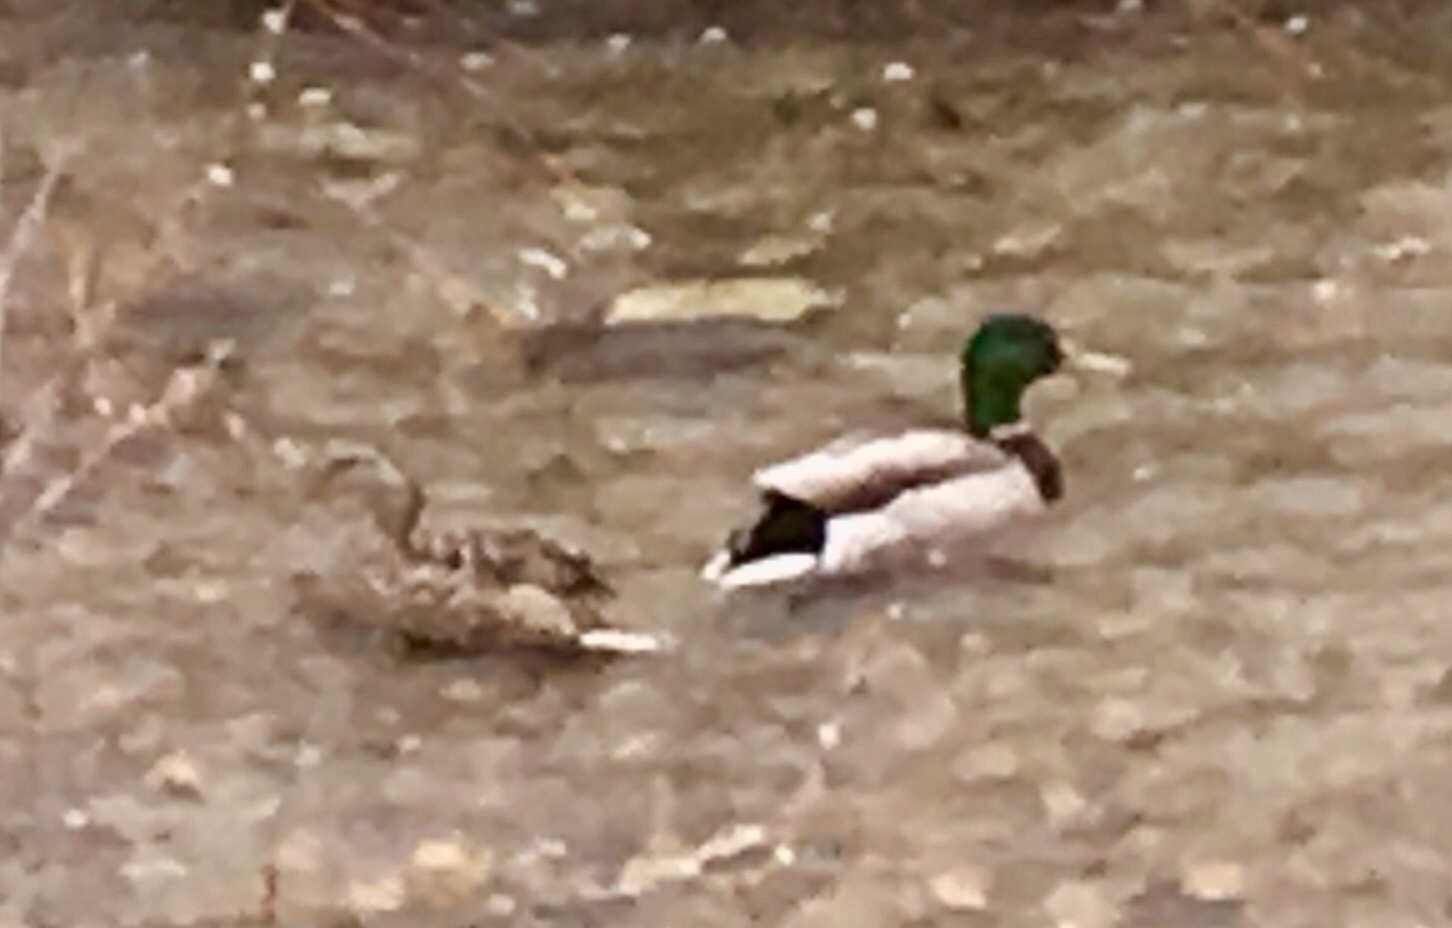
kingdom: Animalia
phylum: Chordata
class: Aves
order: Anseriformes
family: Anatidae
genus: Anas
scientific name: Anas platyrhynchos
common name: Mallard
